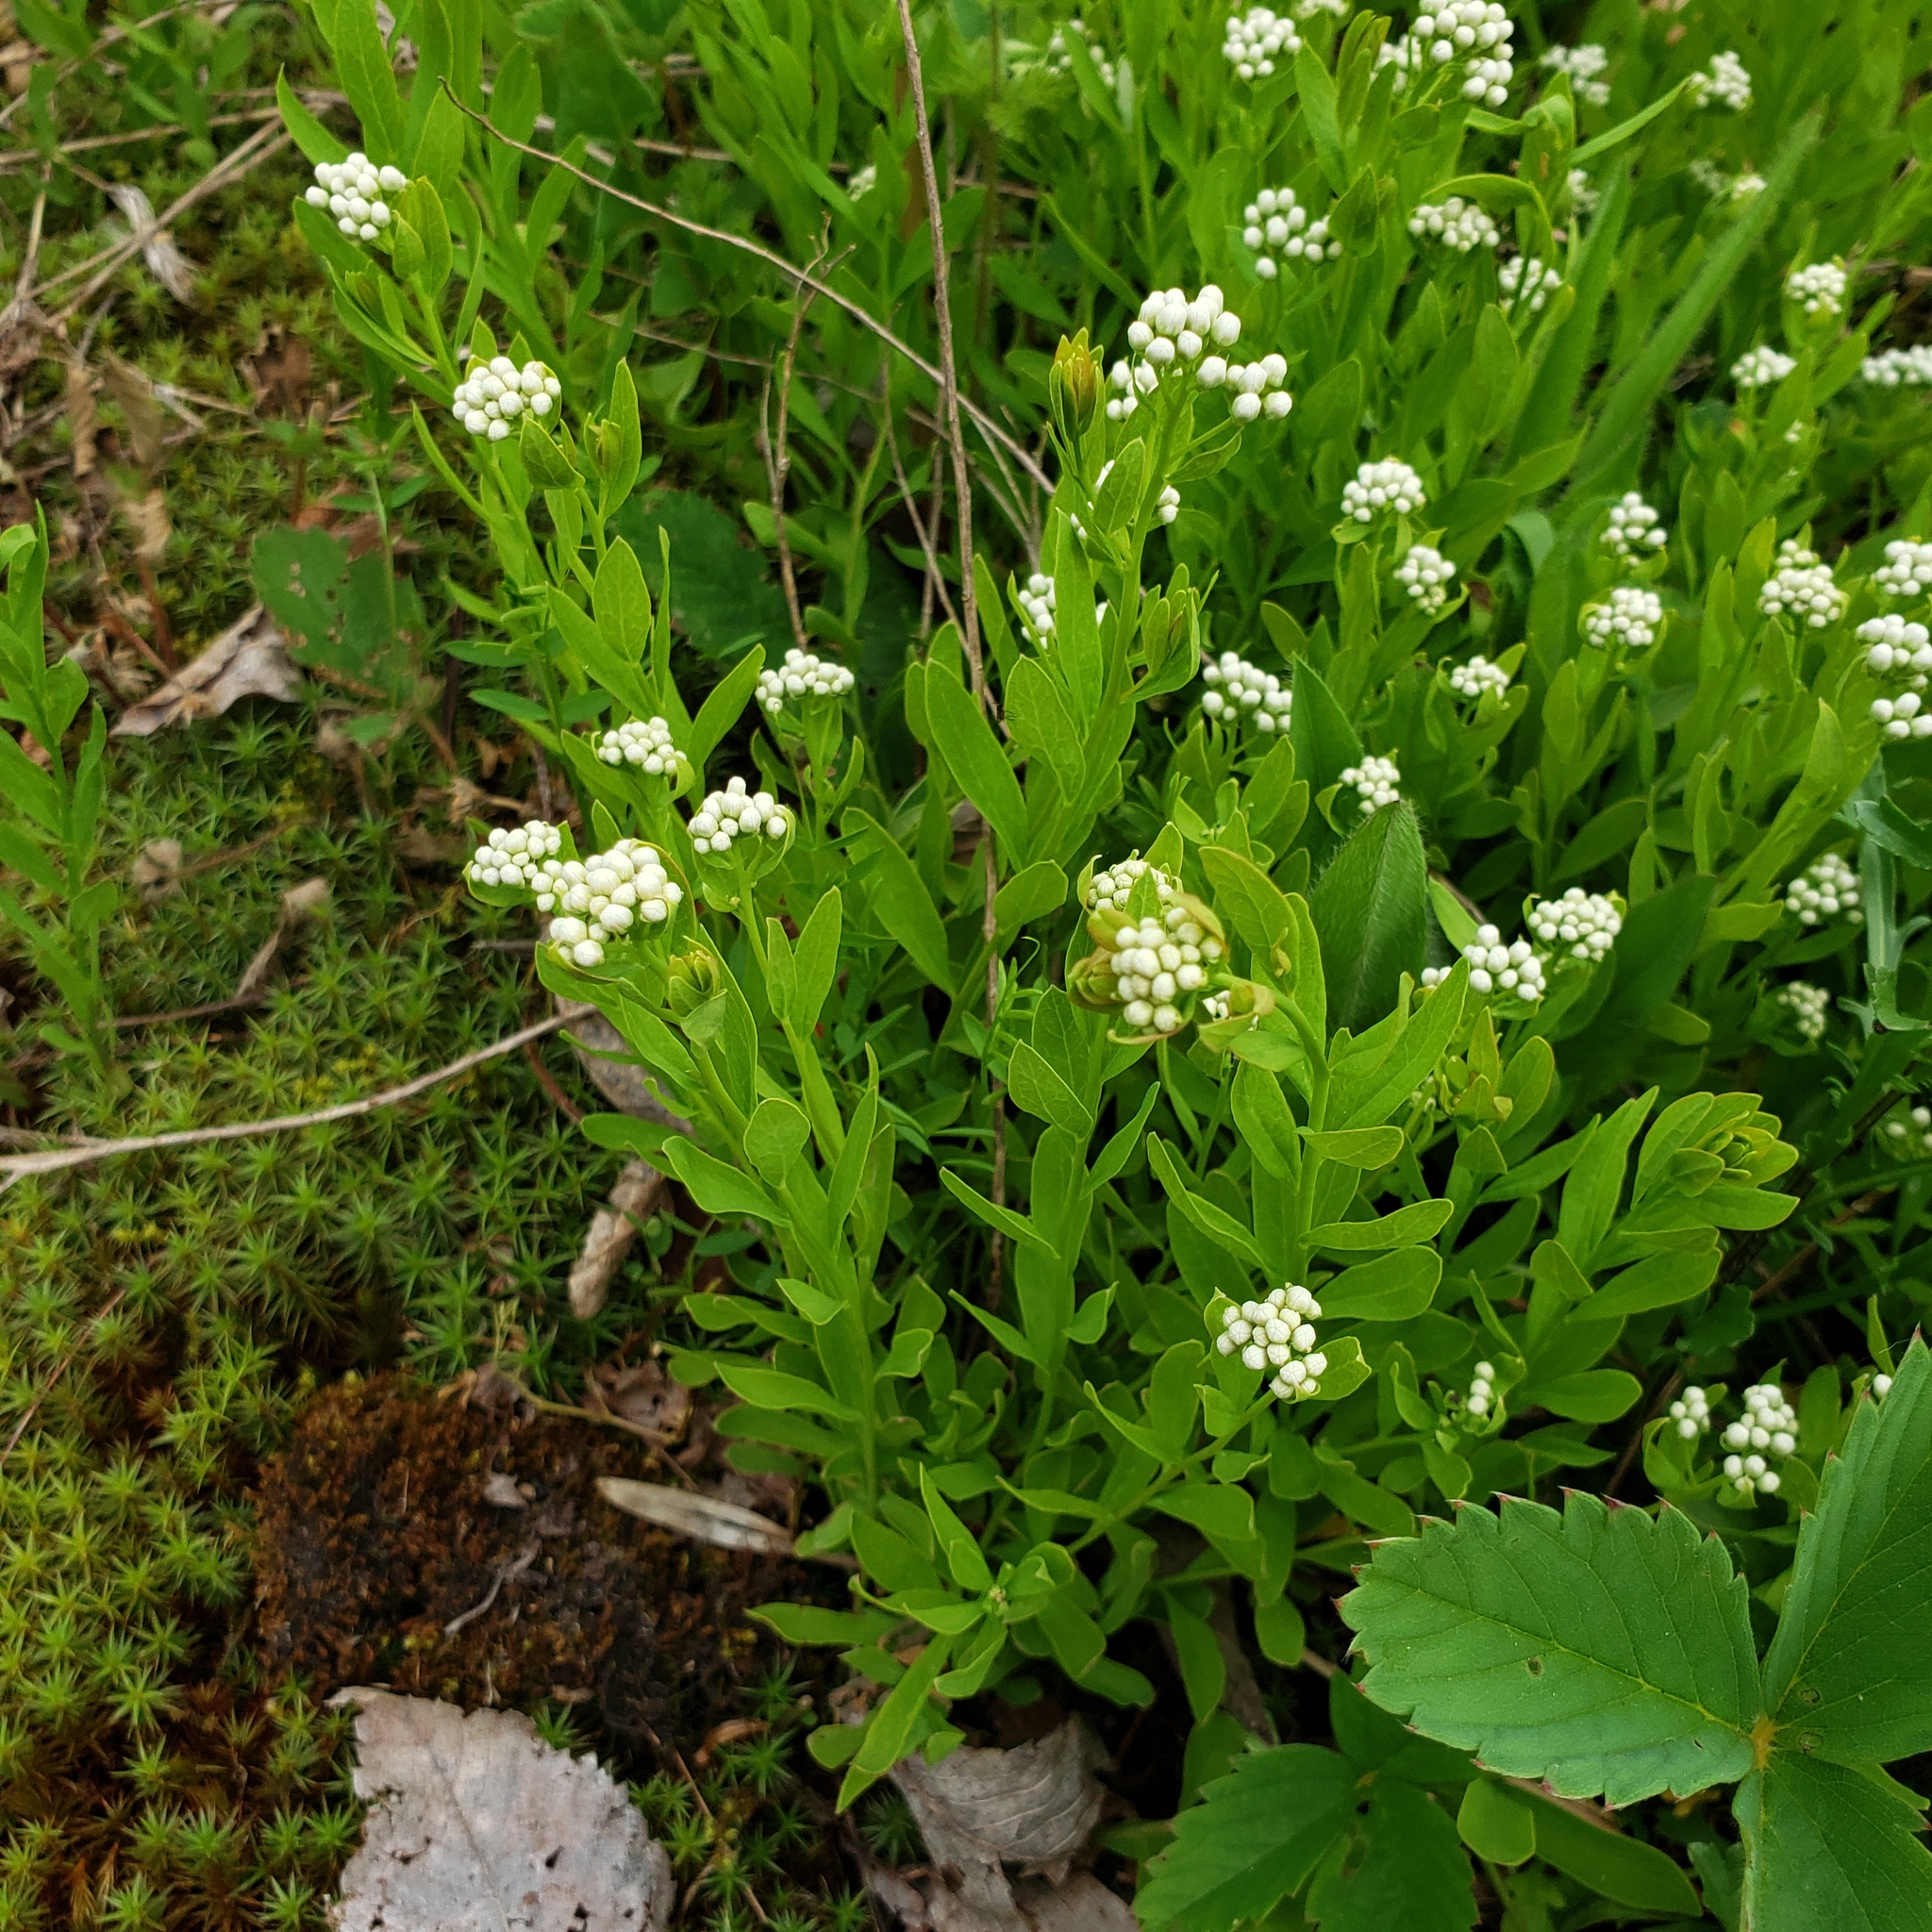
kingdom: Plantae
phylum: Tracheophyta
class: Magnoliopsida
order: Santalales
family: Comandraceae
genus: Comandra
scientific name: Comandra umbellata
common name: Bastard toadflax
